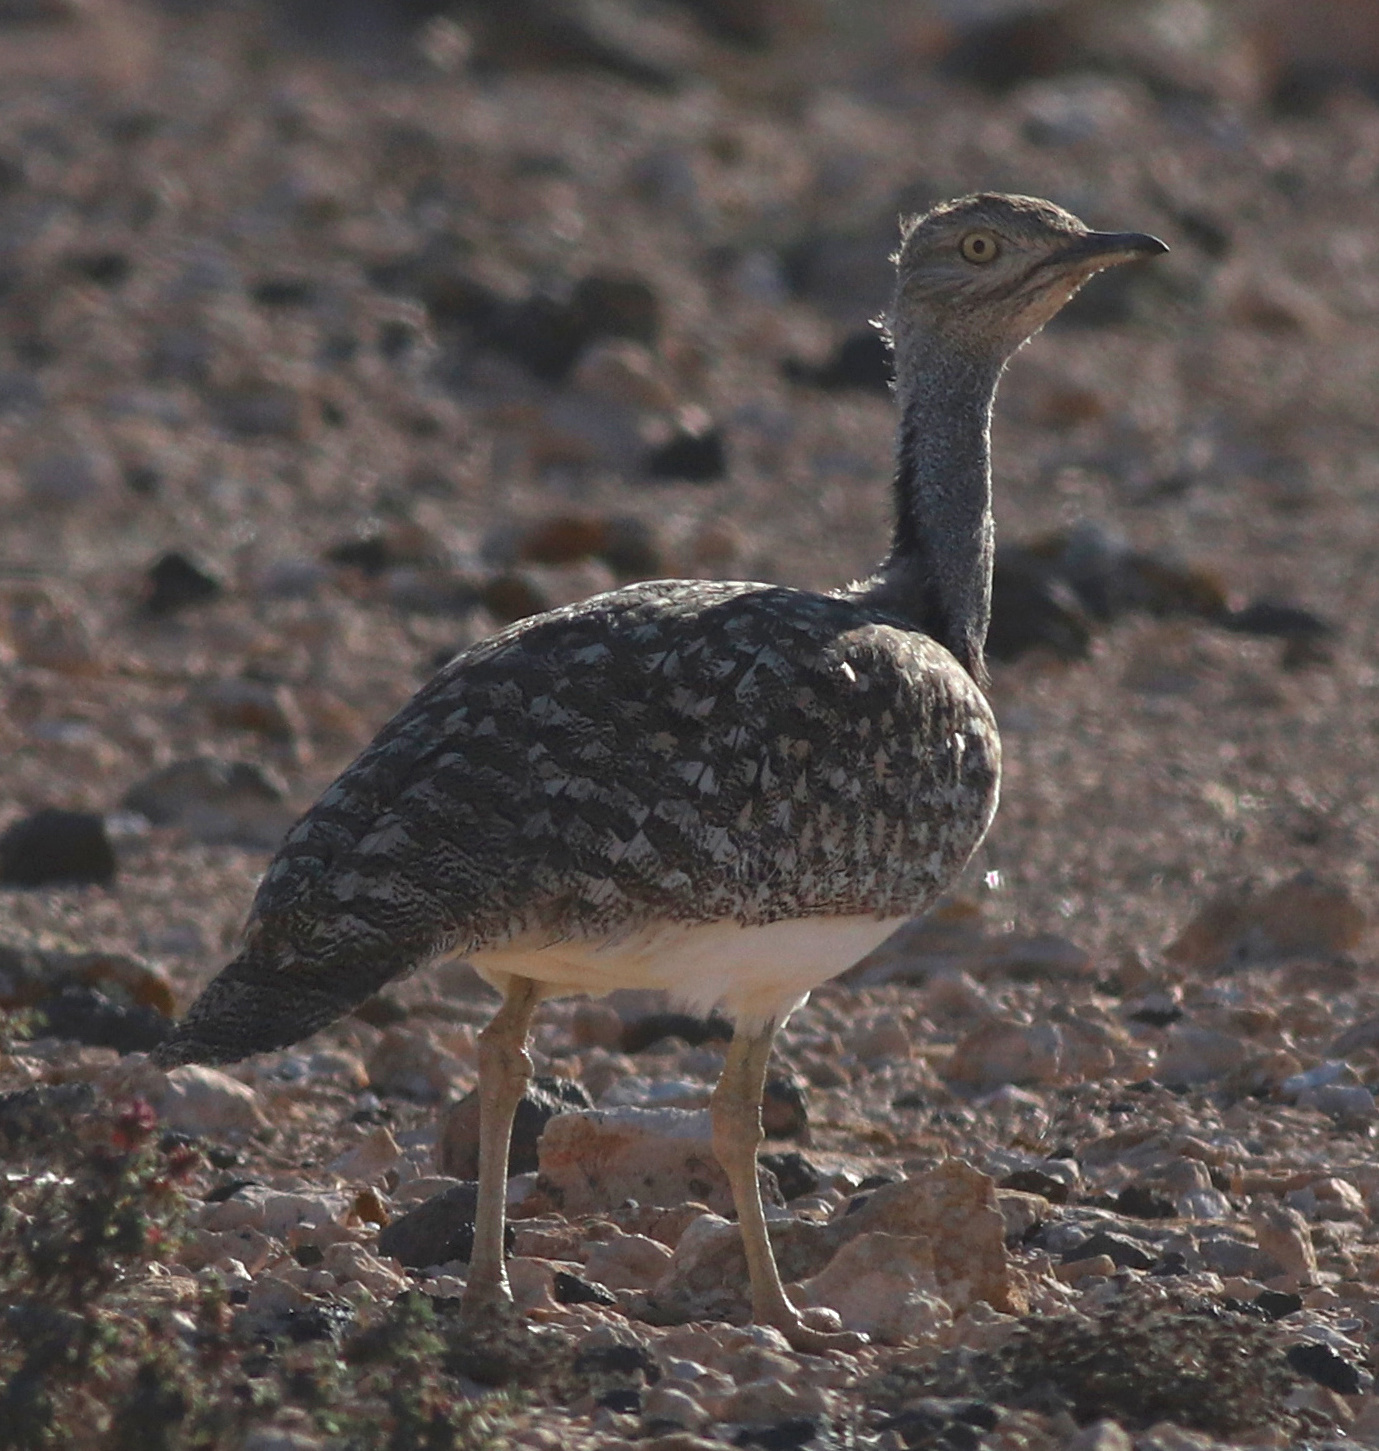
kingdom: Animalia
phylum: Chordata
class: Aves
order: Otidiformes
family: Otididae
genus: Chlamydotis
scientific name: Chlamydotis undulata
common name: Houbara bustard
